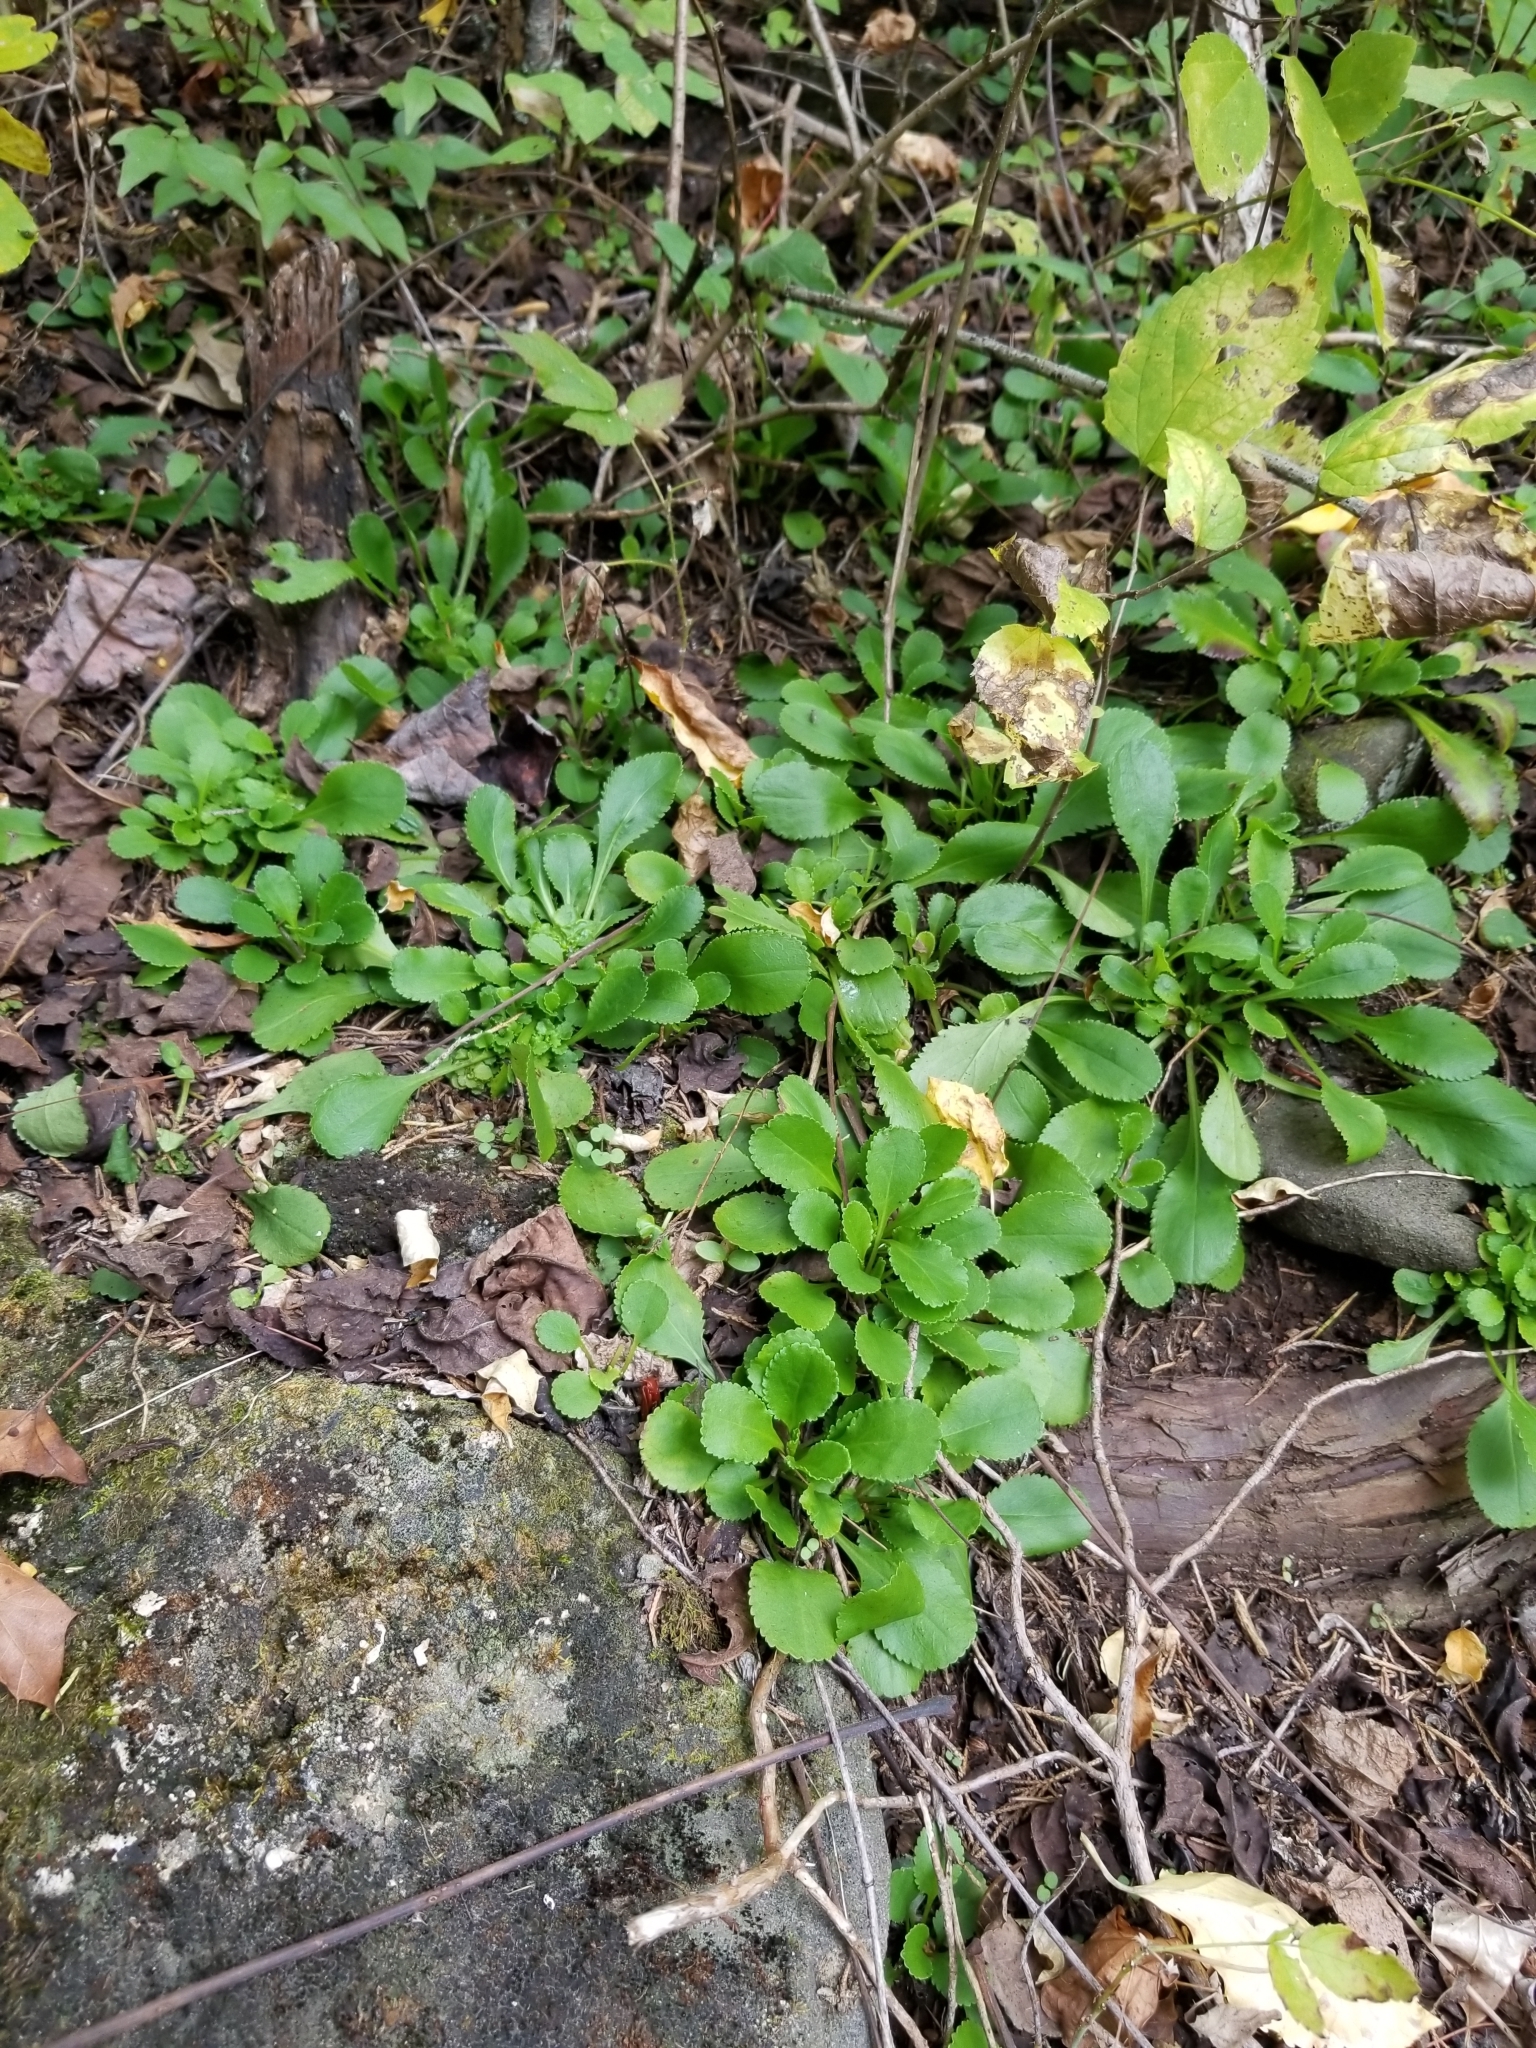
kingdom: Plantae
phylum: Tracheophyta
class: Magnoliopsida
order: Asterales
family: Asteraceae
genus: Packera
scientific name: Packera obovata
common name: Round-leaf ragwort
